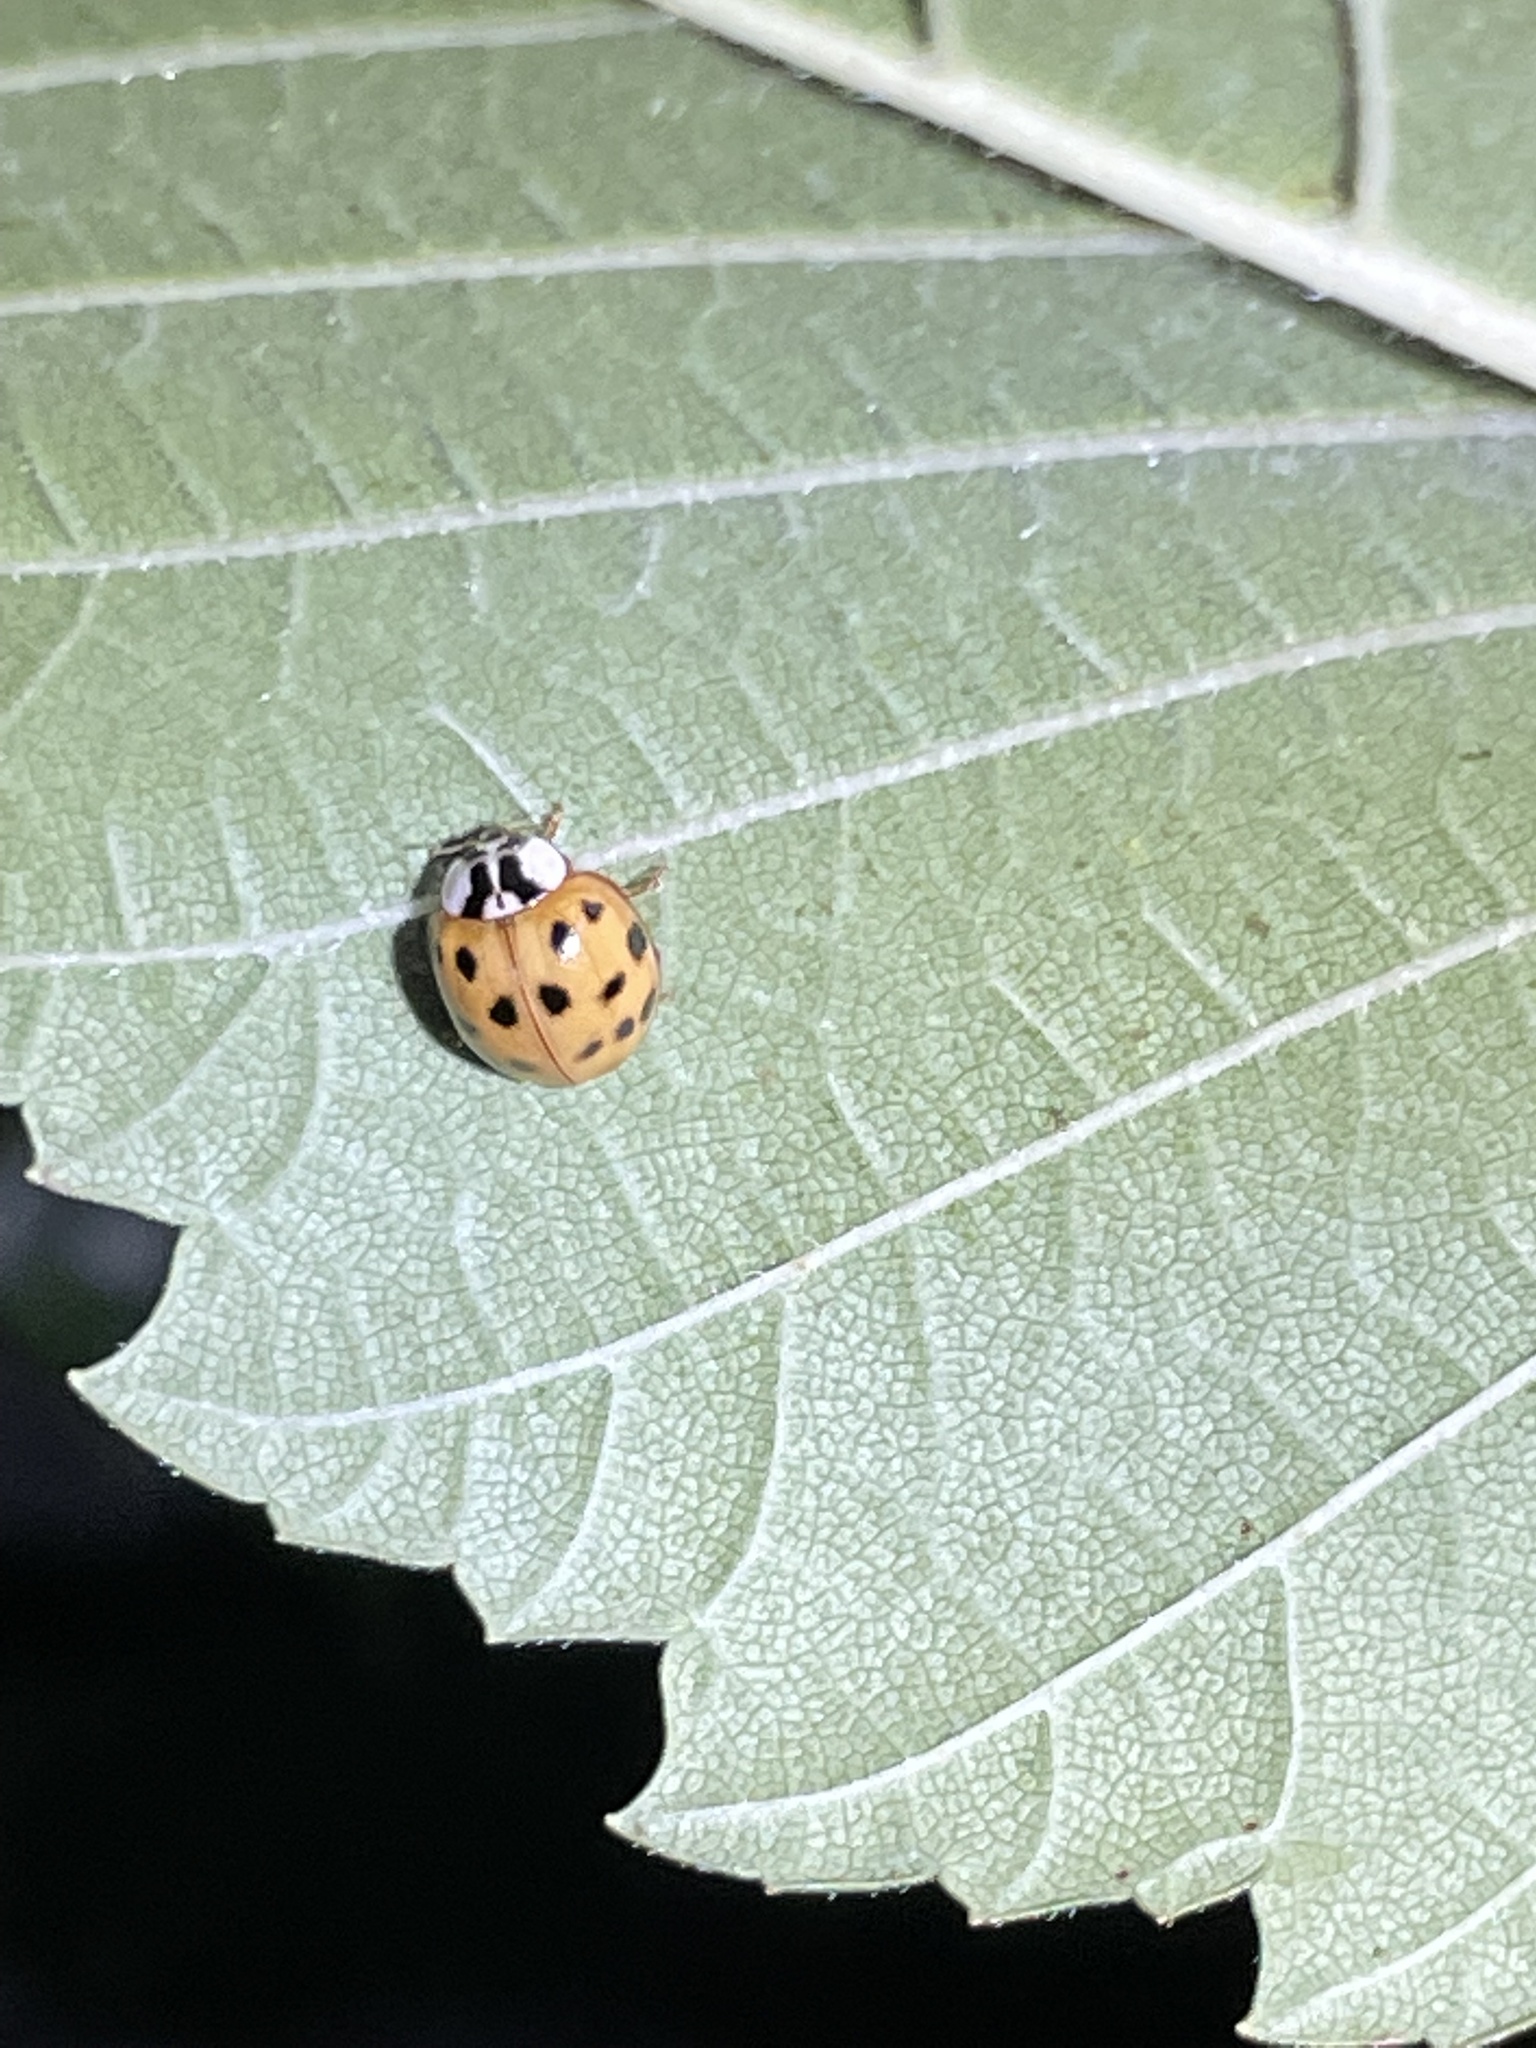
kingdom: Animalia
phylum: Arthropoda
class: Insecta
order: Coleoptera
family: Coccinellidae
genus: Harmonia
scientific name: Harmonia axyridis
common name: Harlequin ladybird
